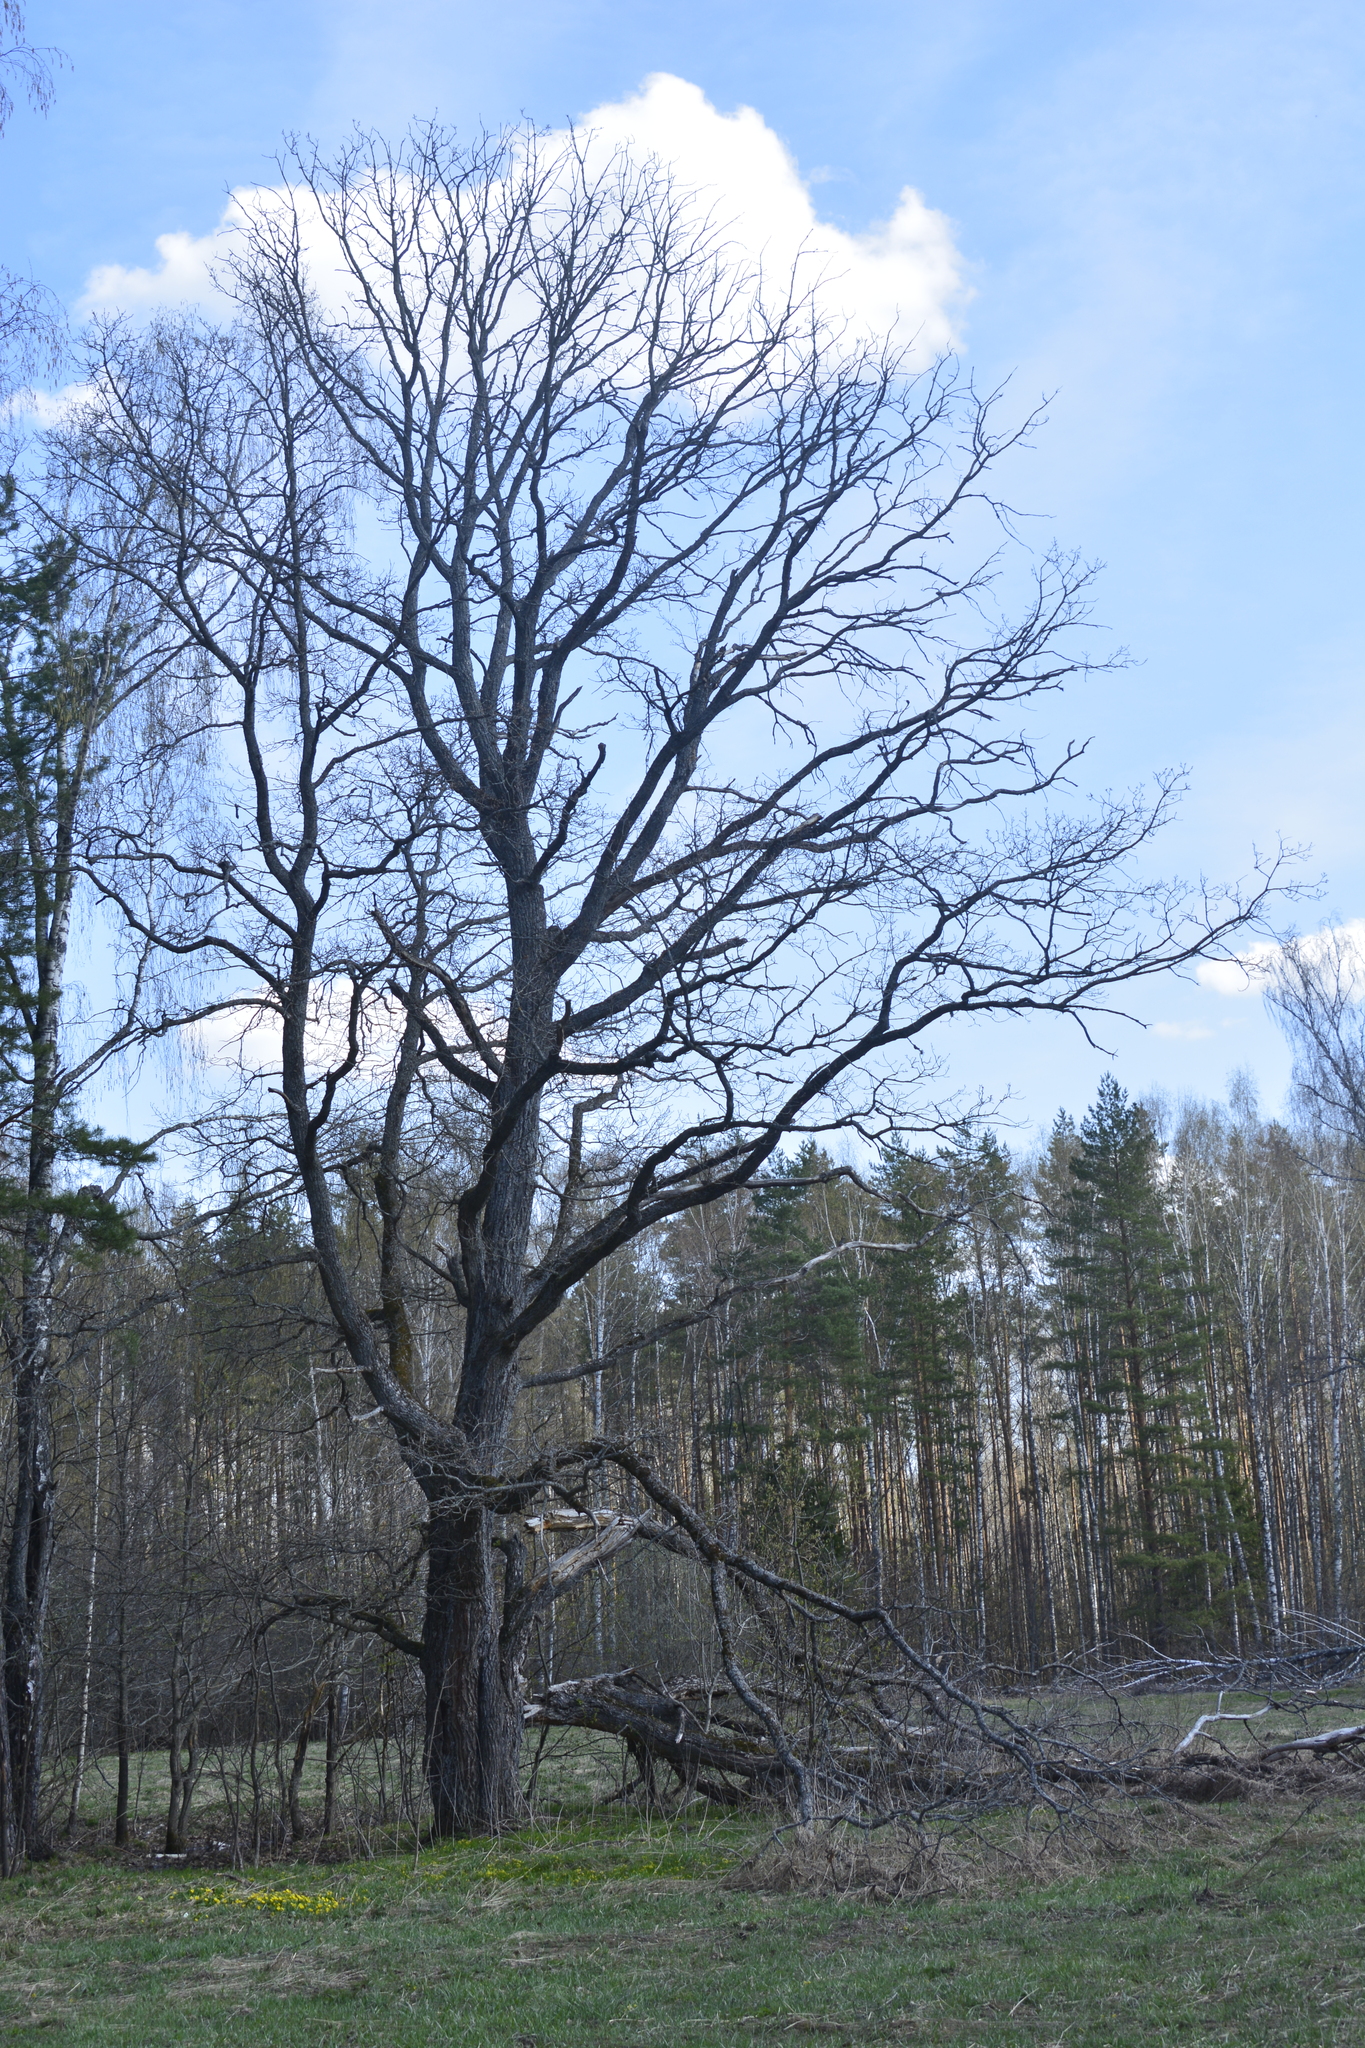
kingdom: Plantae
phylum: Tracheophyta
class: Magnoliopsida
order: Fagales
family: Fagaceae
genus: Quercus
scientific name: Quercus robur
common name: Pedunculate oak
